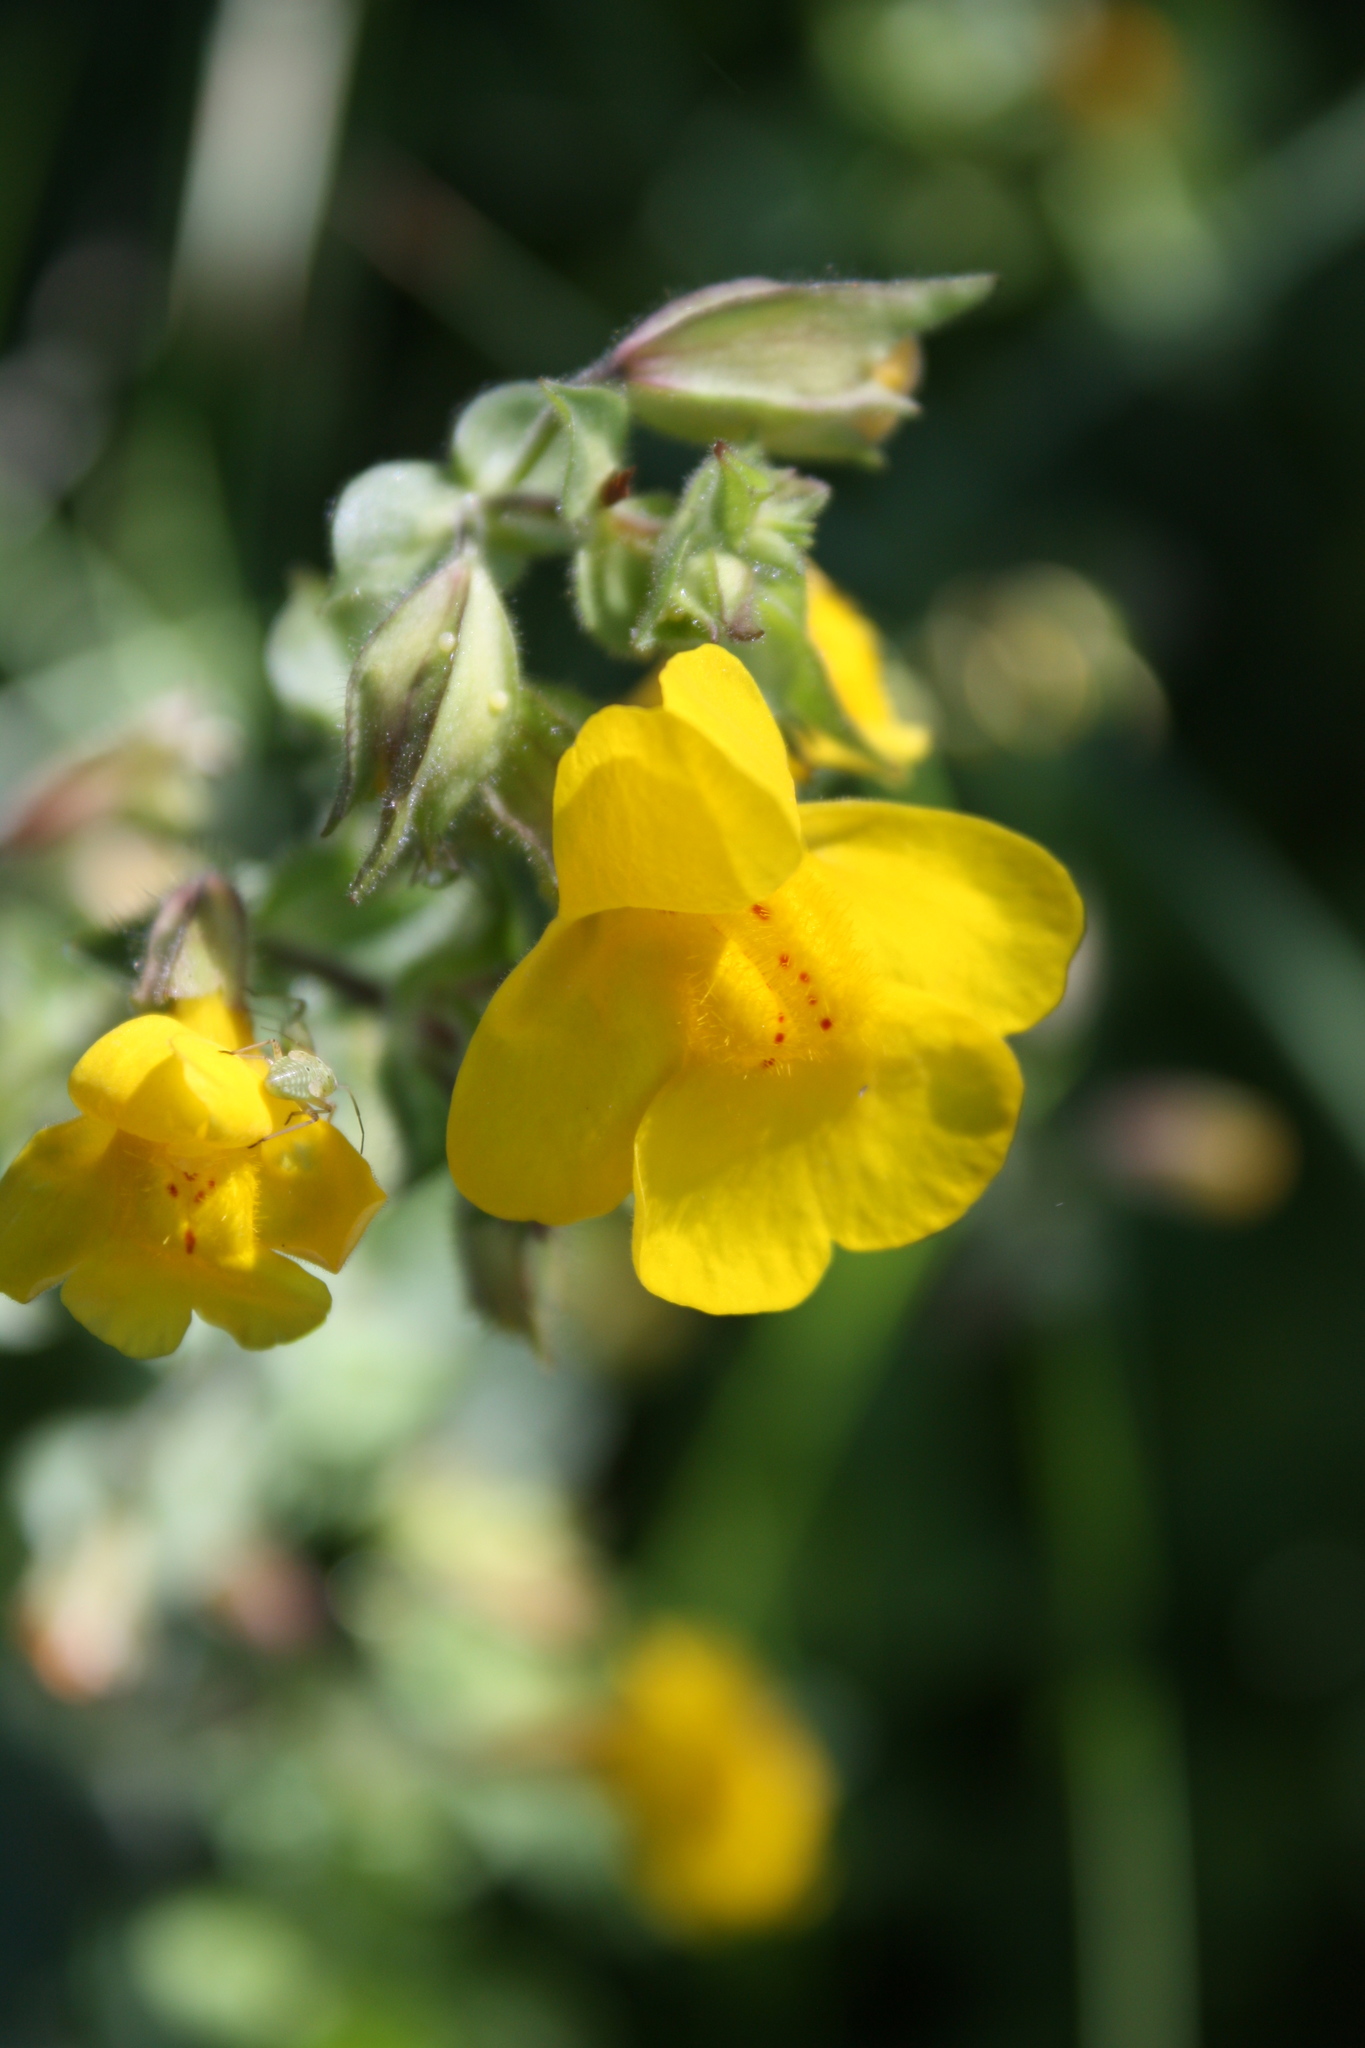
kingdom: Plantae
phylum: Tracheophyta
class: Magnoliopsida
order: Lamiales
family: Phrymaceae
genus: Erythranthe
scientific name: Erythranthe guttata
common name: Monkeyflower
